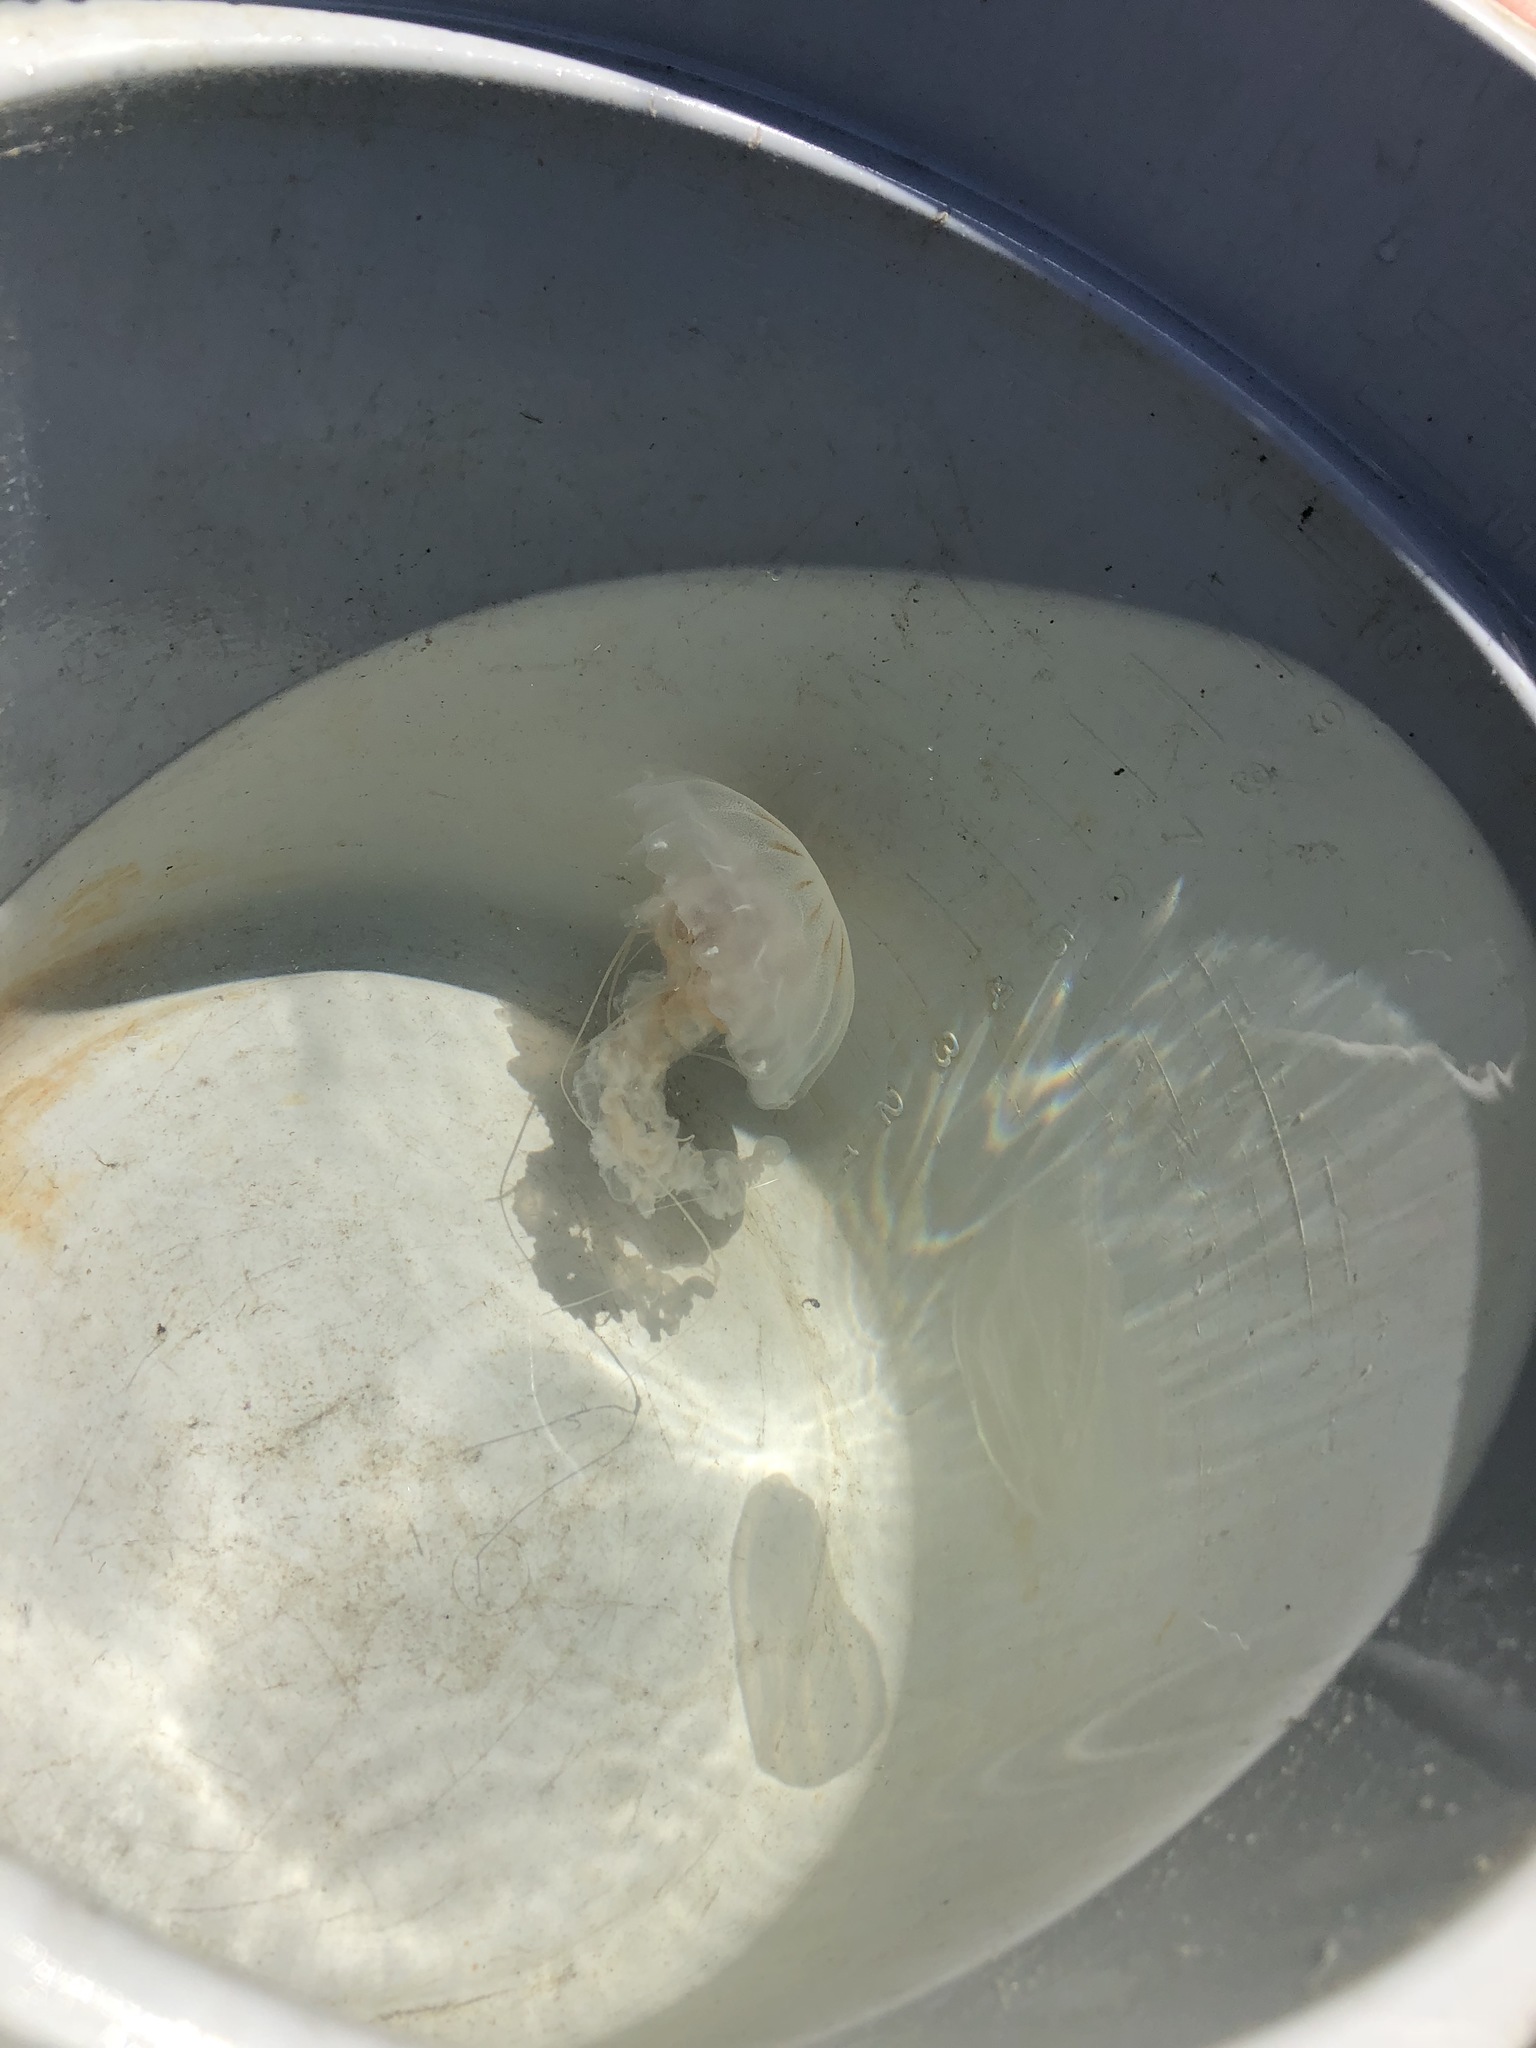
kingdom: Animalia
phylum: Cnidaria
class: Scyphozoa
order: Semaeostomeae
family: Pelagiidae
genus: Chrysaora
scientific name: Chrysaora chesapeakei
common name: Bay nettle
